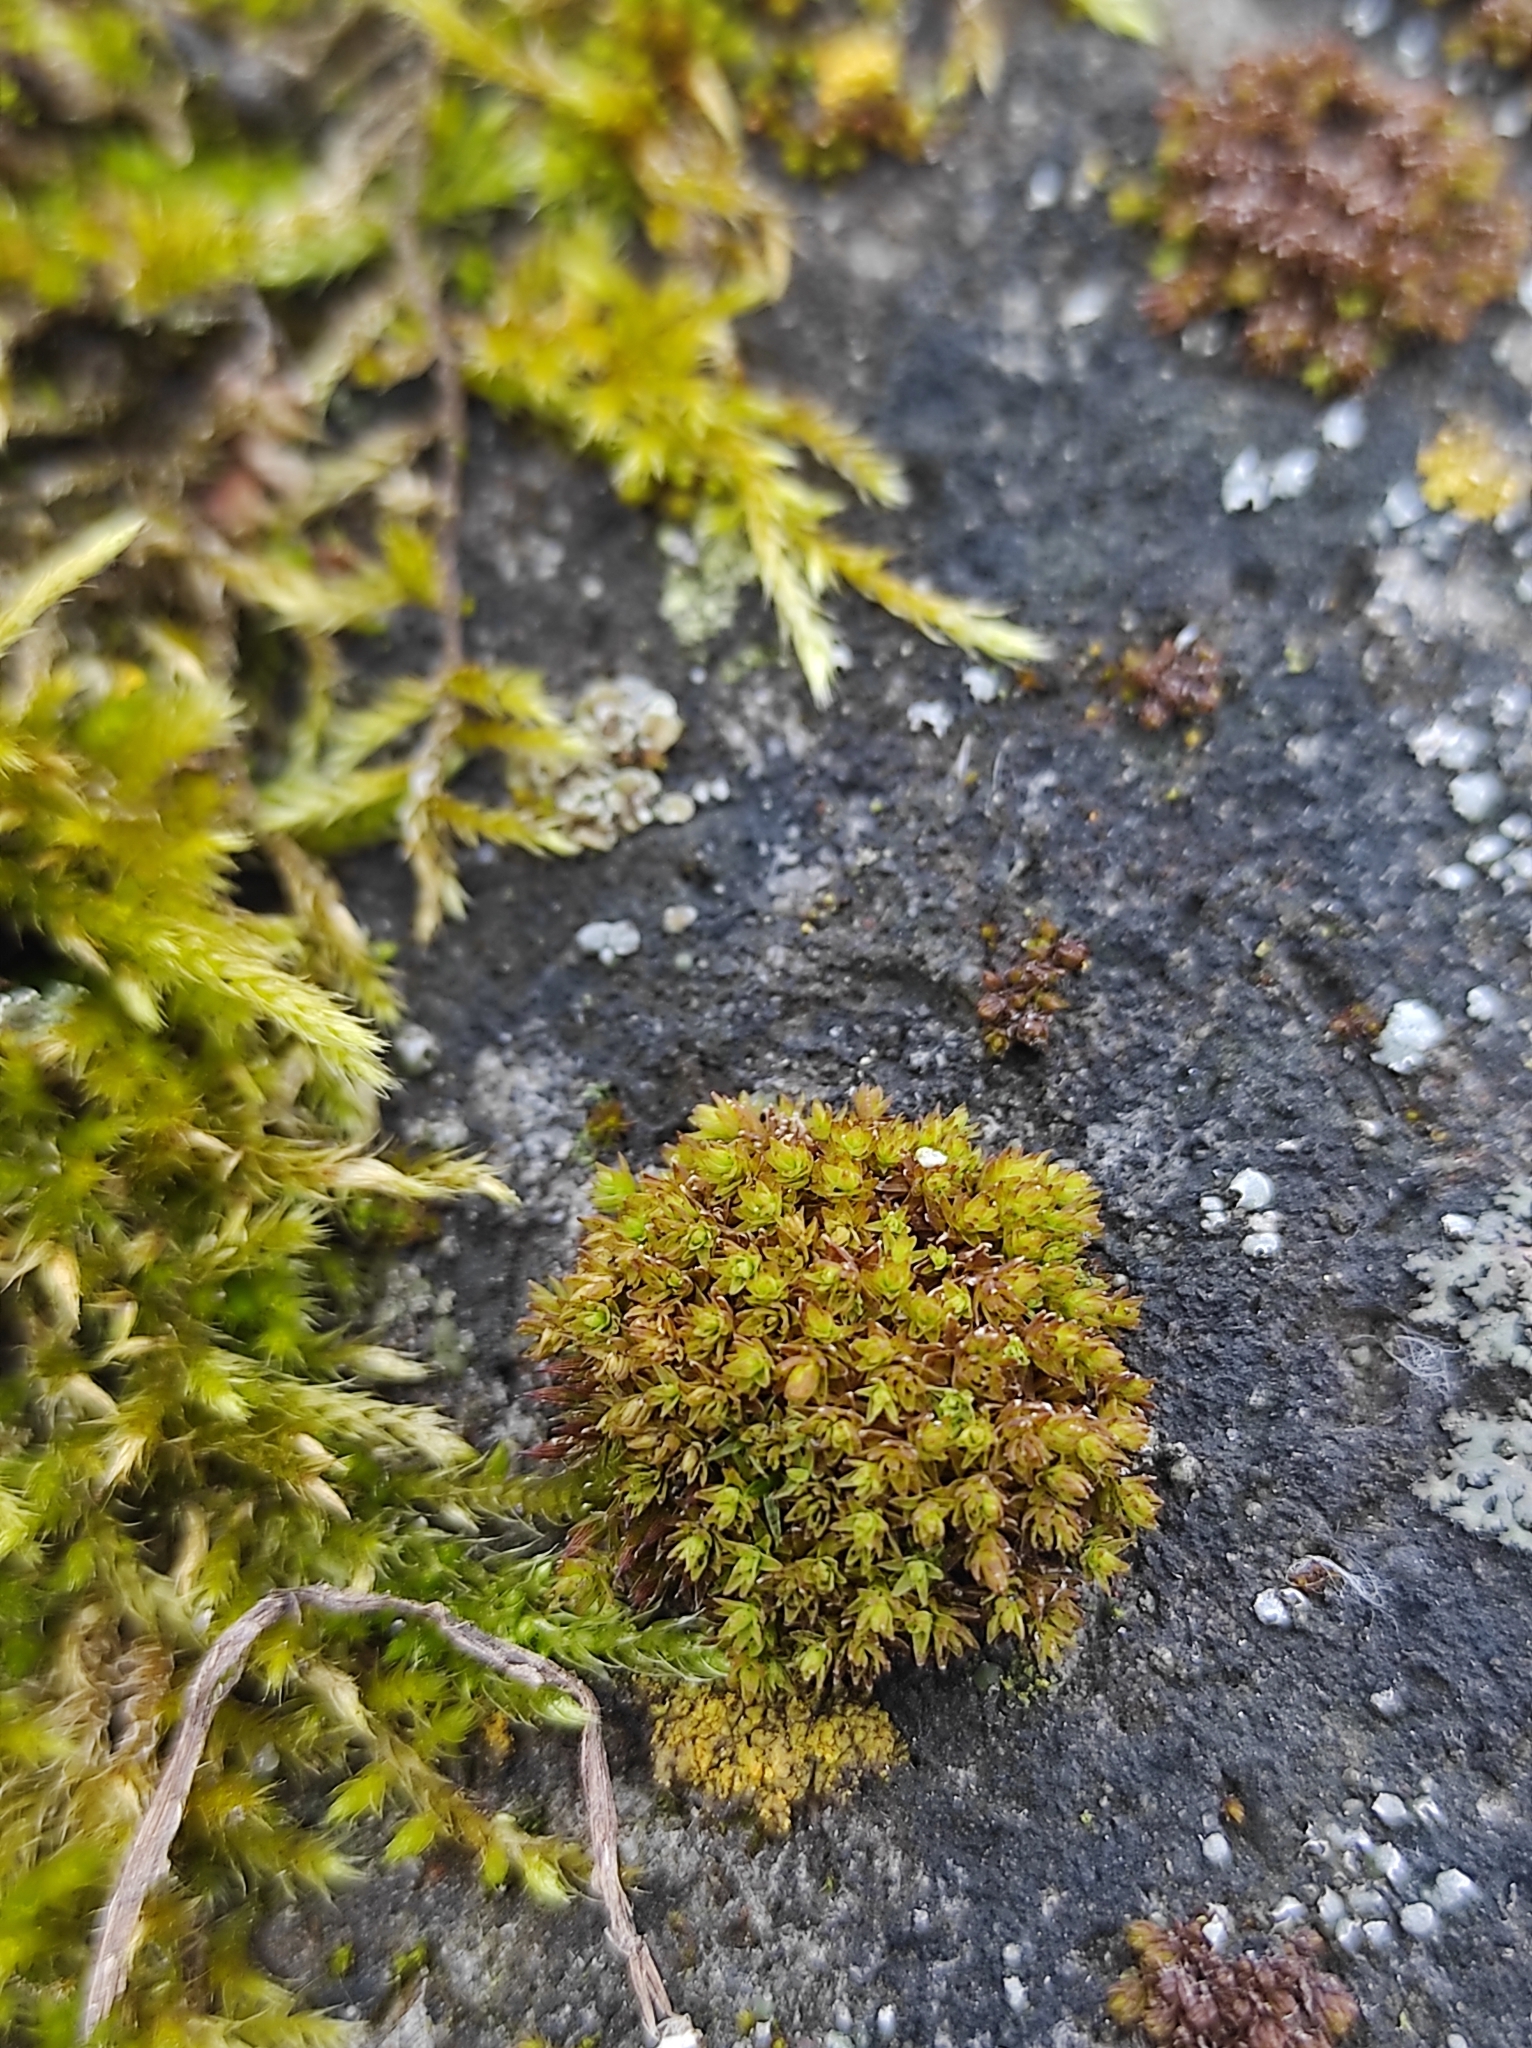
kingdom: Plantae
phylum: Bryophyta
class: Bryopsida
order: Orthotrichales
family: Orthotrichaceae
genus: Nyholmiella
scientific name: Nyholmiella obtusifolia
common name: Blunt-leaved bristle-moss
